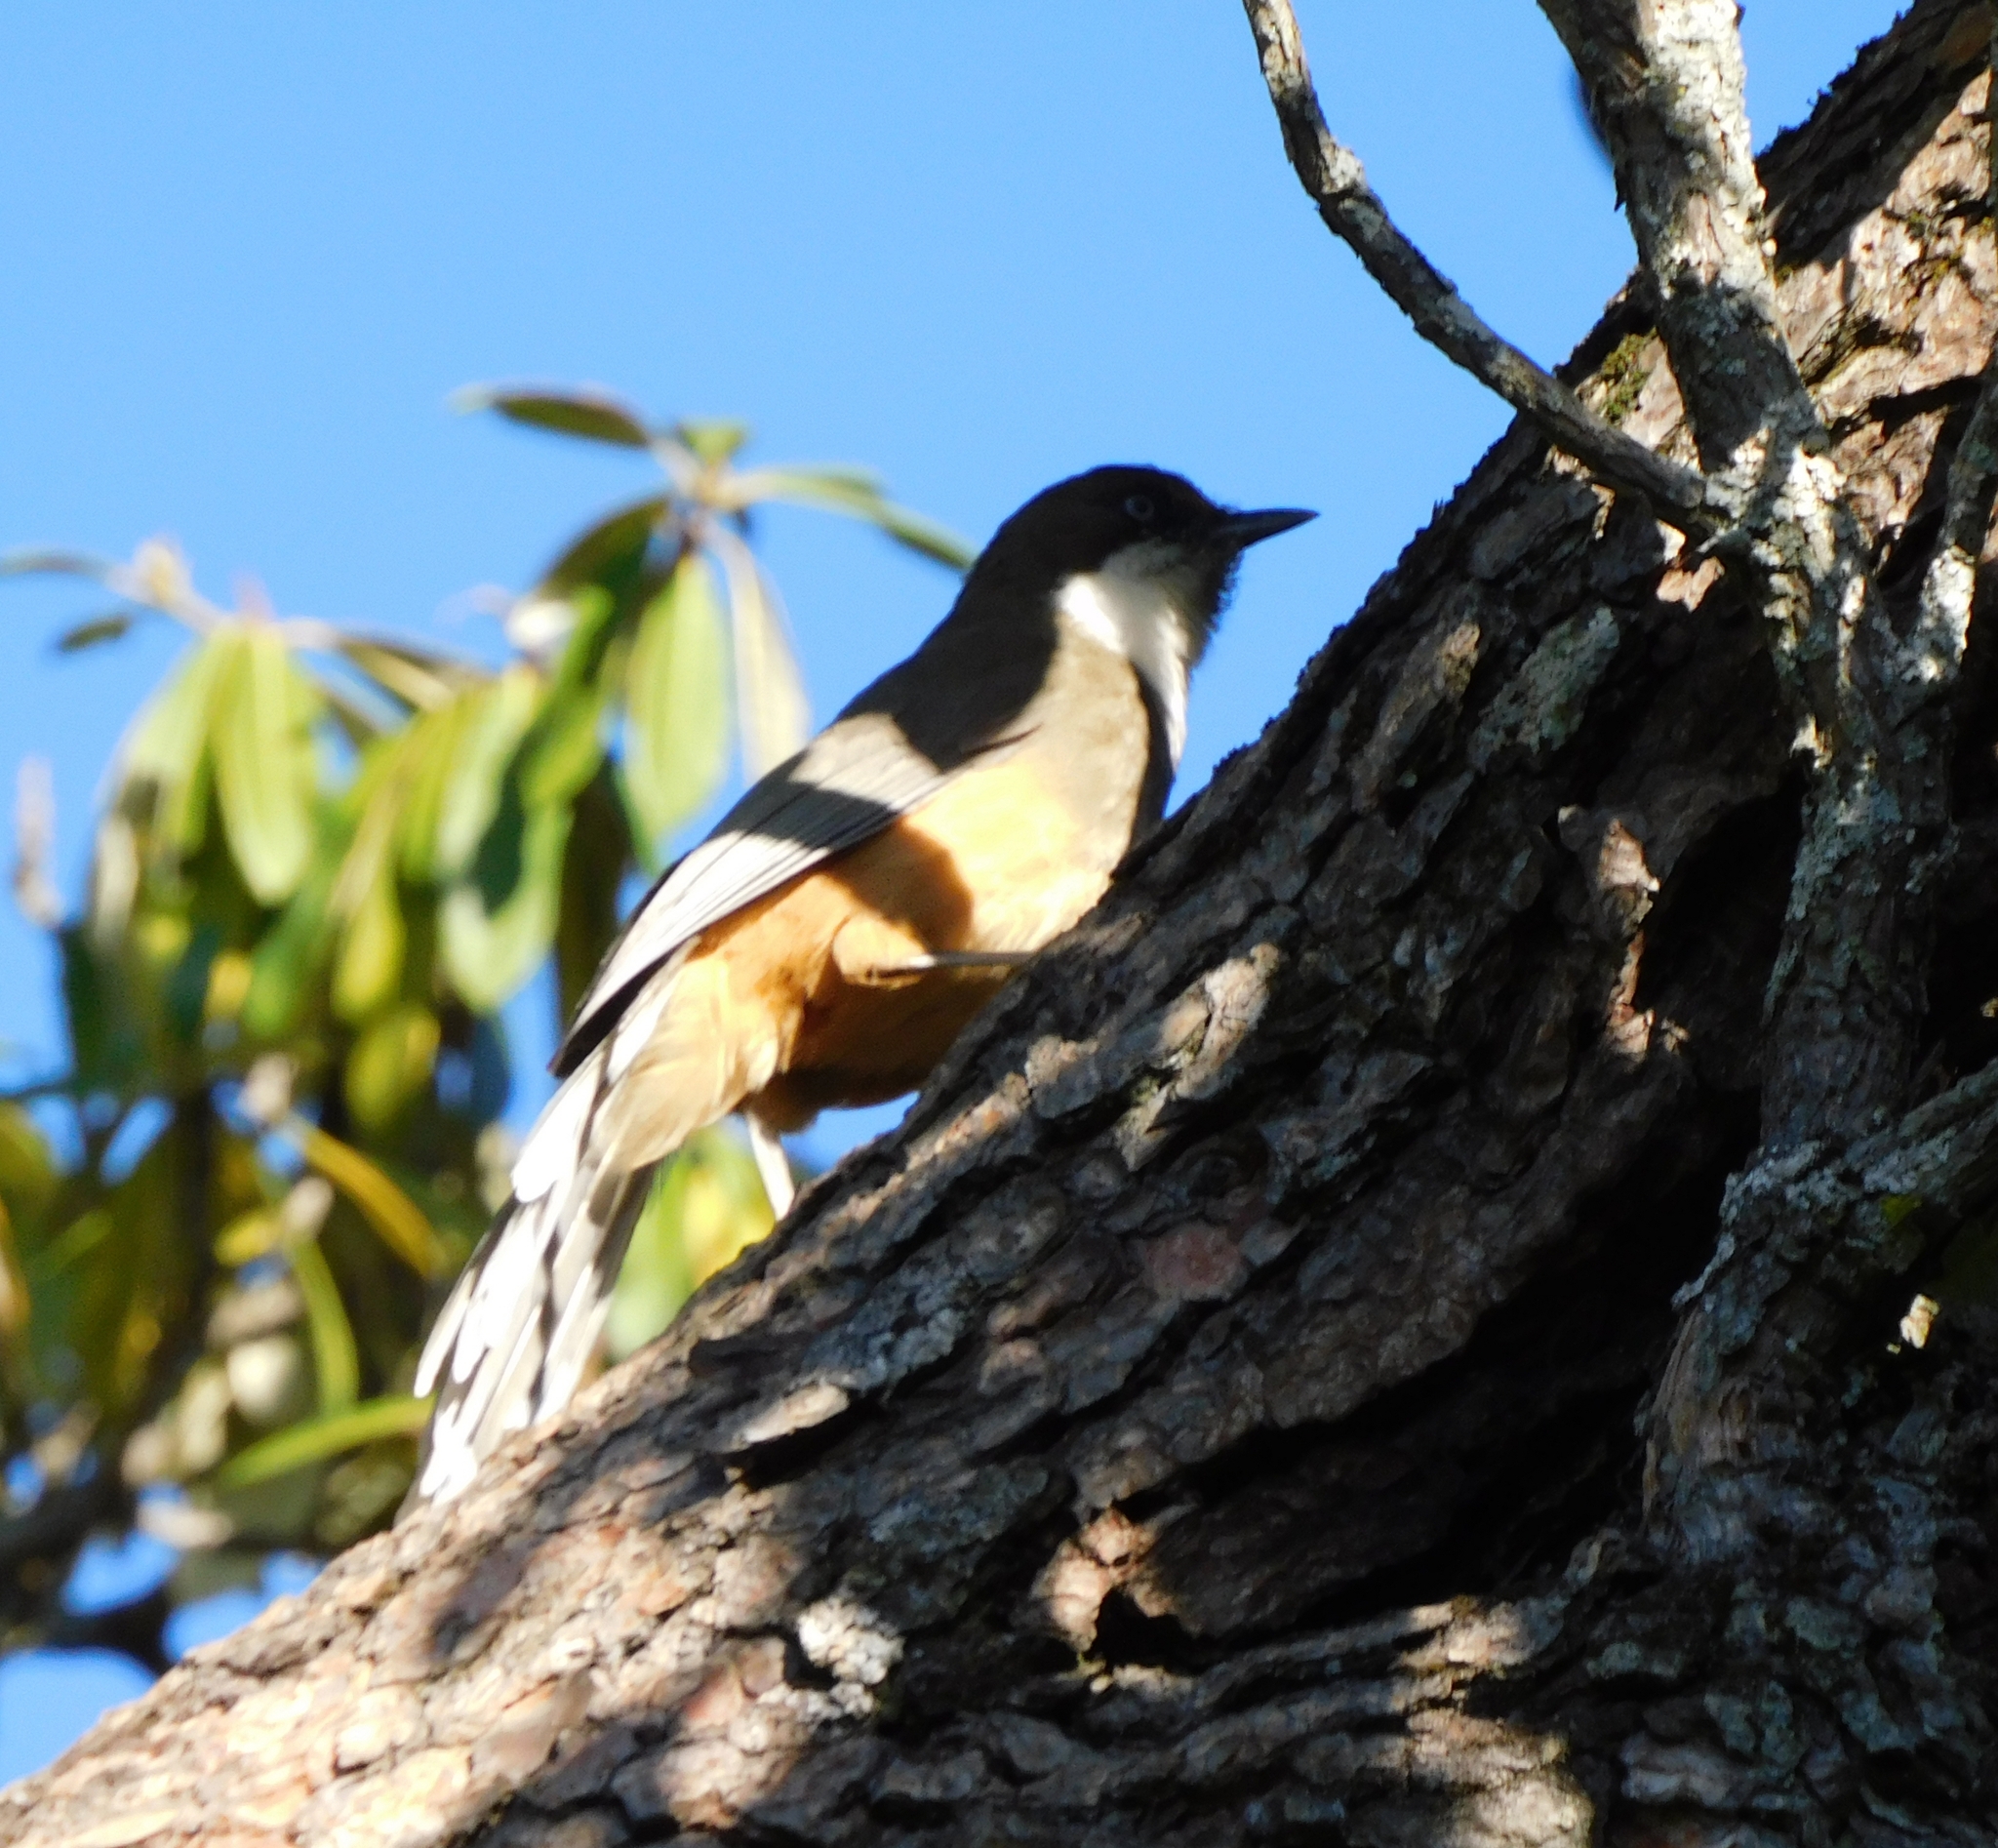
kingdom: Animalia
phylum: Chordata
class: Aves
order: Passeriformes
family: Leiothrichidae
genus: Garrulax
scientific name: Garrulax albogularis
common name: White-throated laughingthrush
